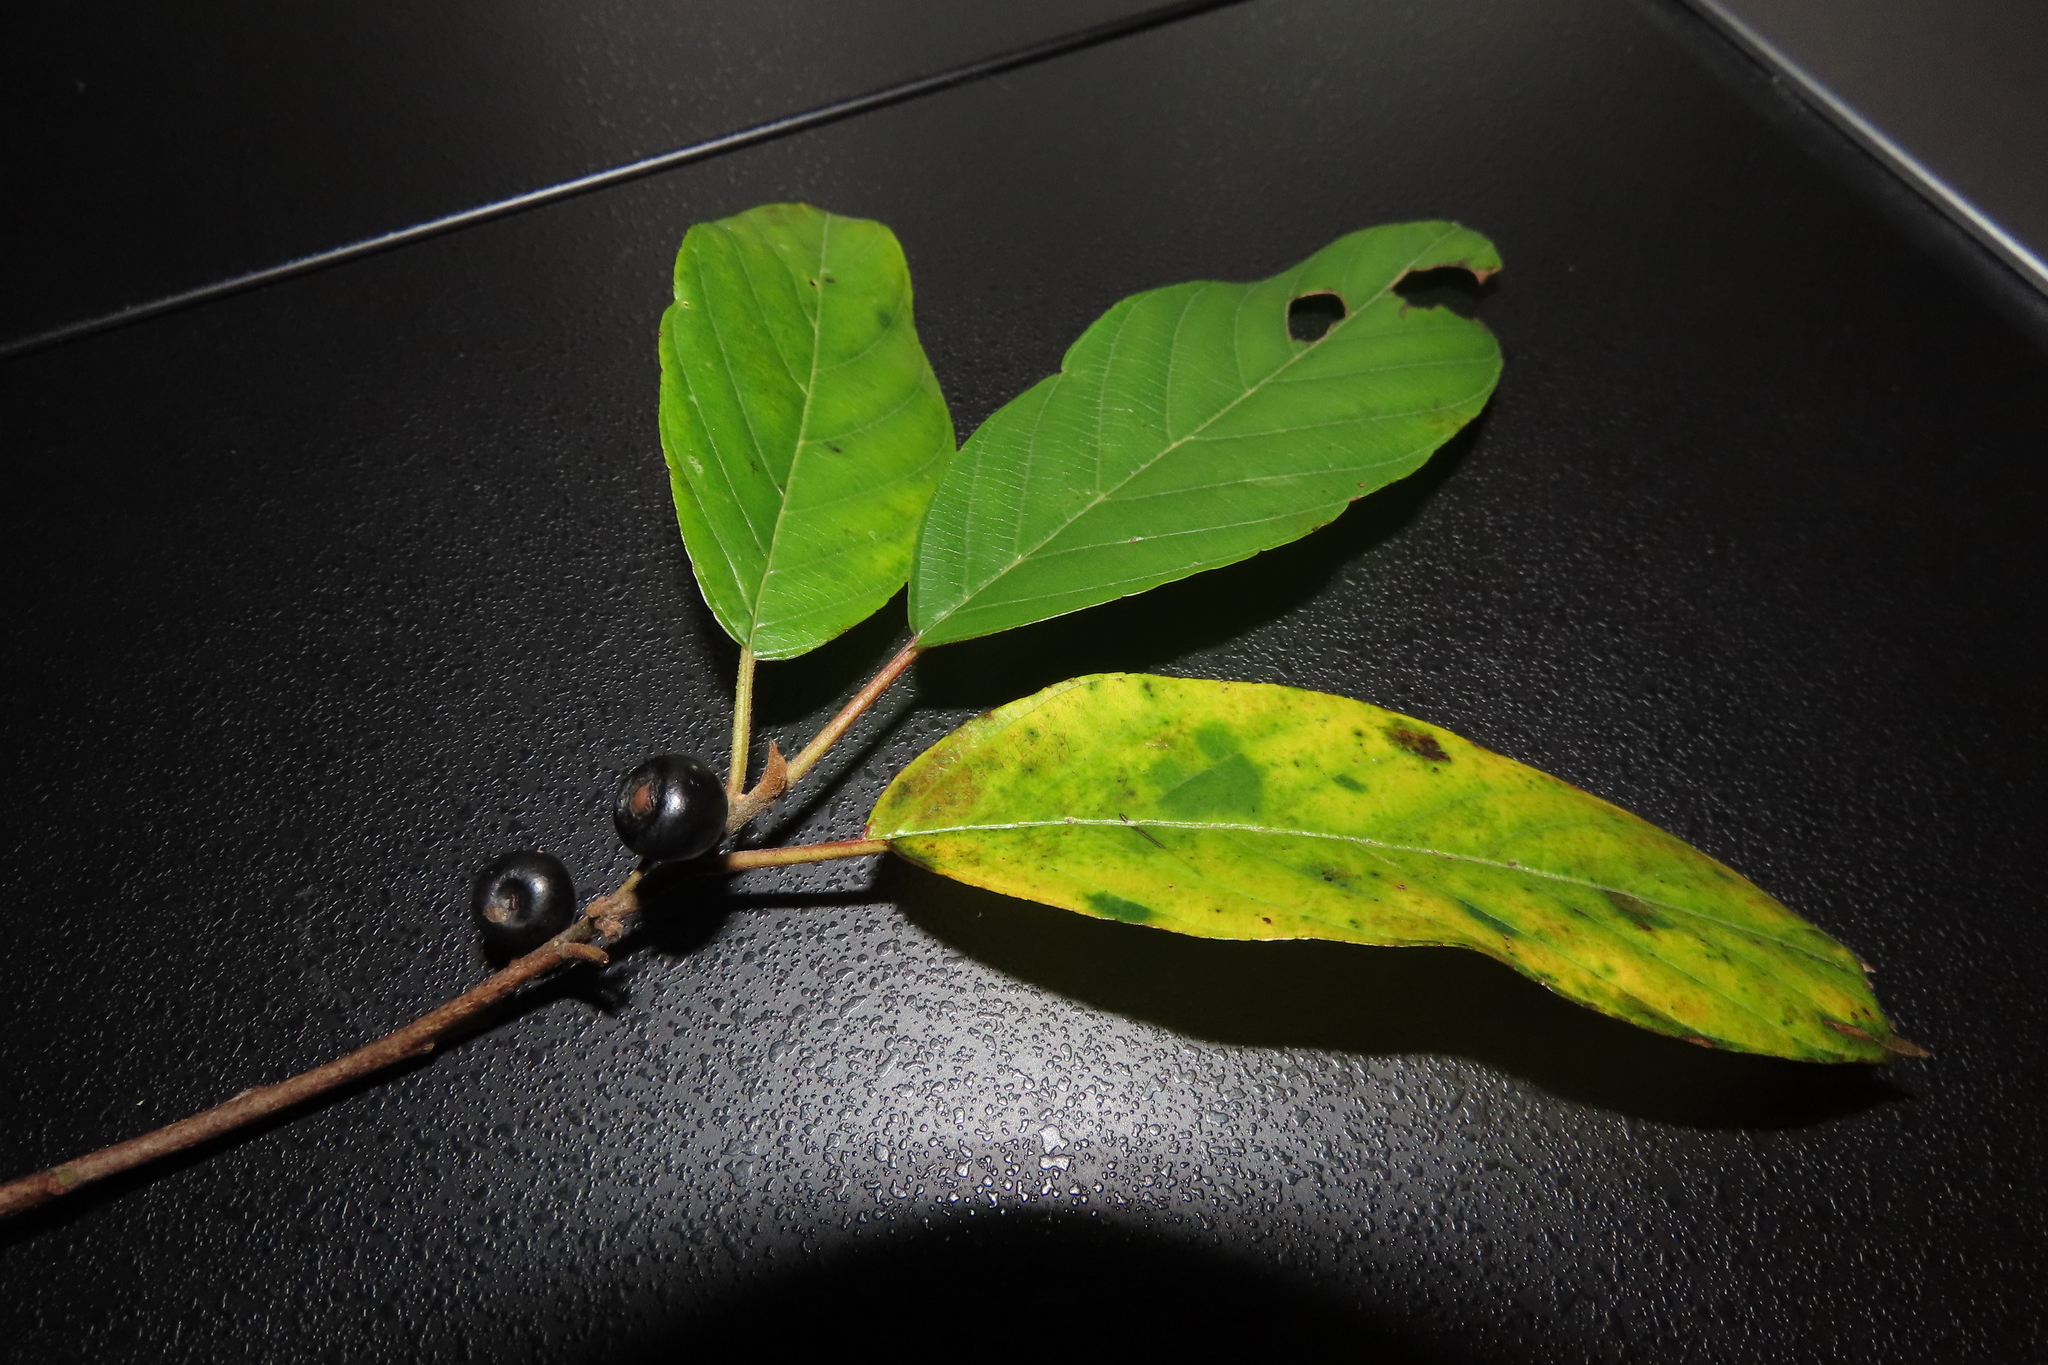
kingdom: Plantae
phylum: Tracheophyta
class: Magnoliopsida
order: Rosales
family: Rhamnaceae
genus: Frangula
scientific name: Frangula caroliniana
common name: Carolina buckthorn
